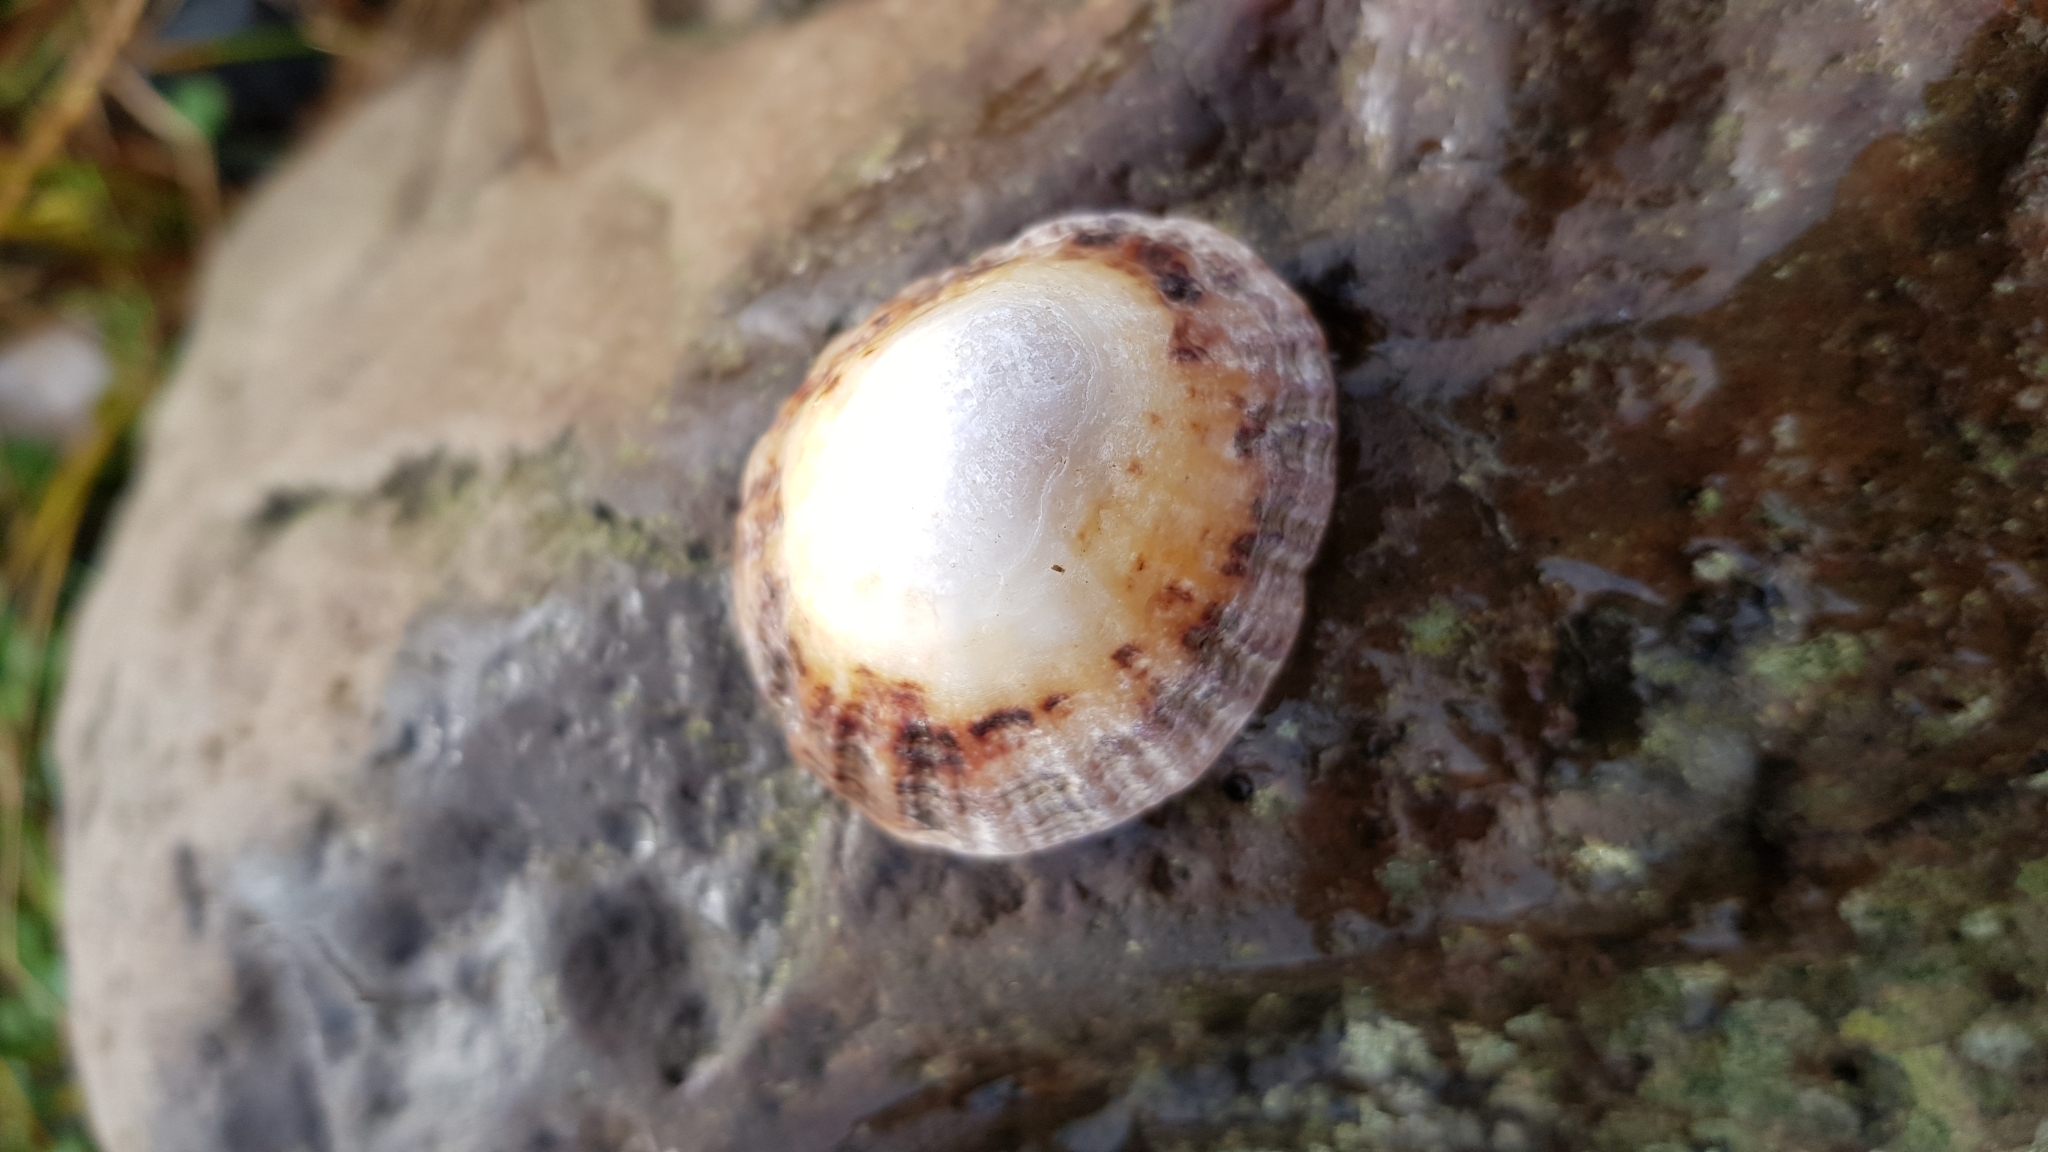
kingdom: Animalia
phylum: Mollusca
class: Gastropoda
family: Patellidae
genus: Patella
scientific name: Patella vulgata
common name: Common limpet
